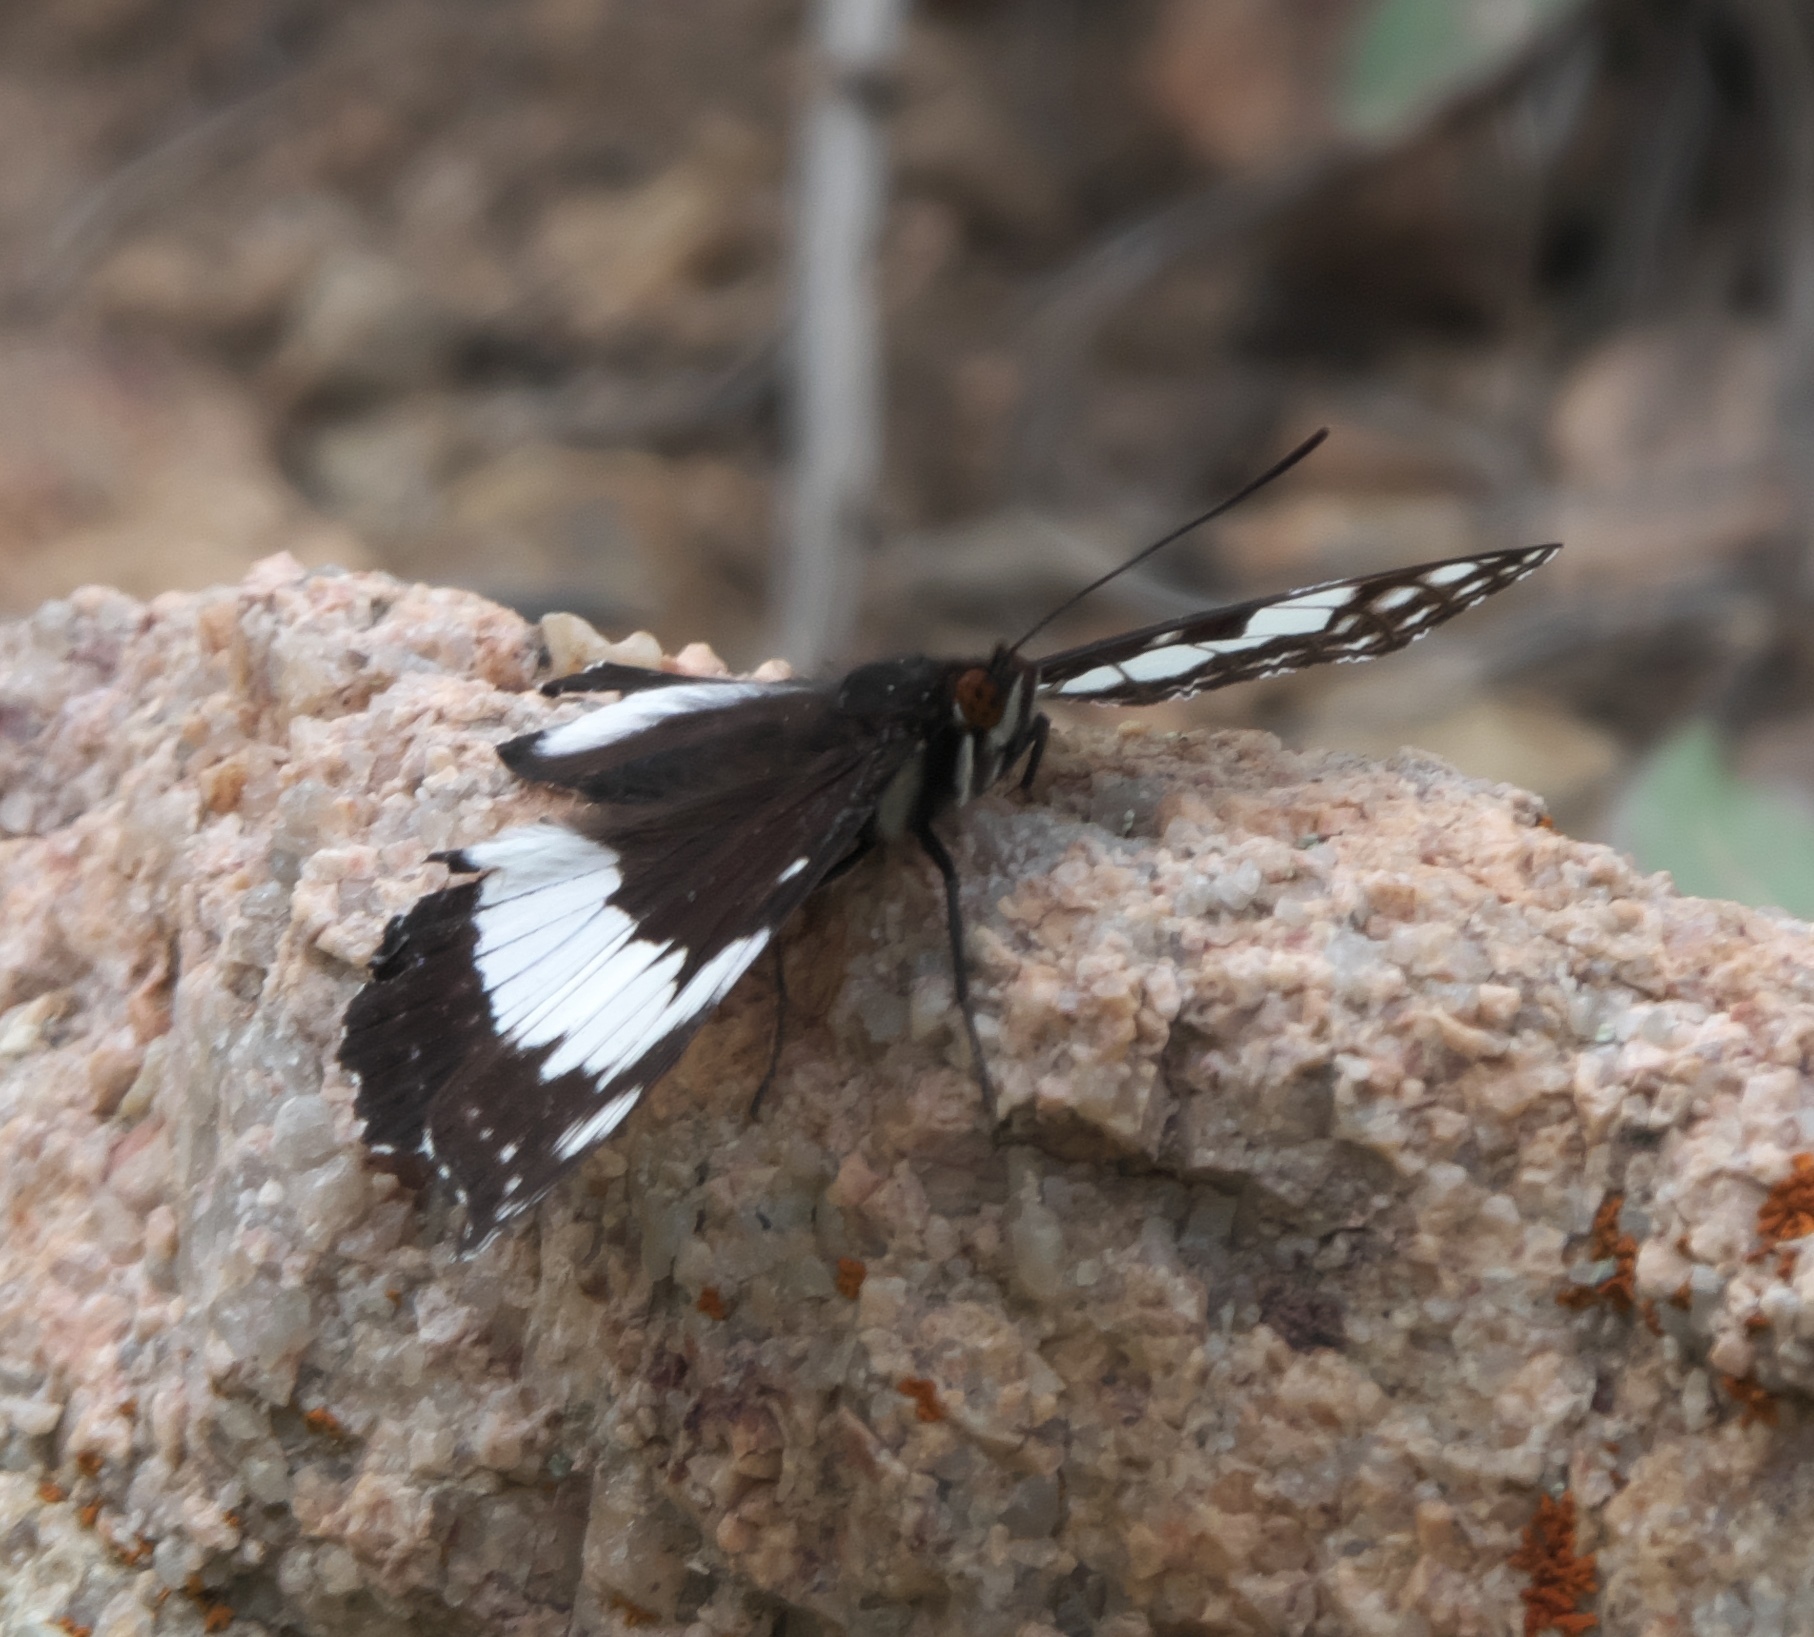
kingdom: Animalia
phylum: Arthropoda
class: Insecta
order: Lepidoptera
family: Nymphalidae
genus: Limenitis
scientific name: Limenitis weidemeyerii
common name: Weidemeyer's admiral
